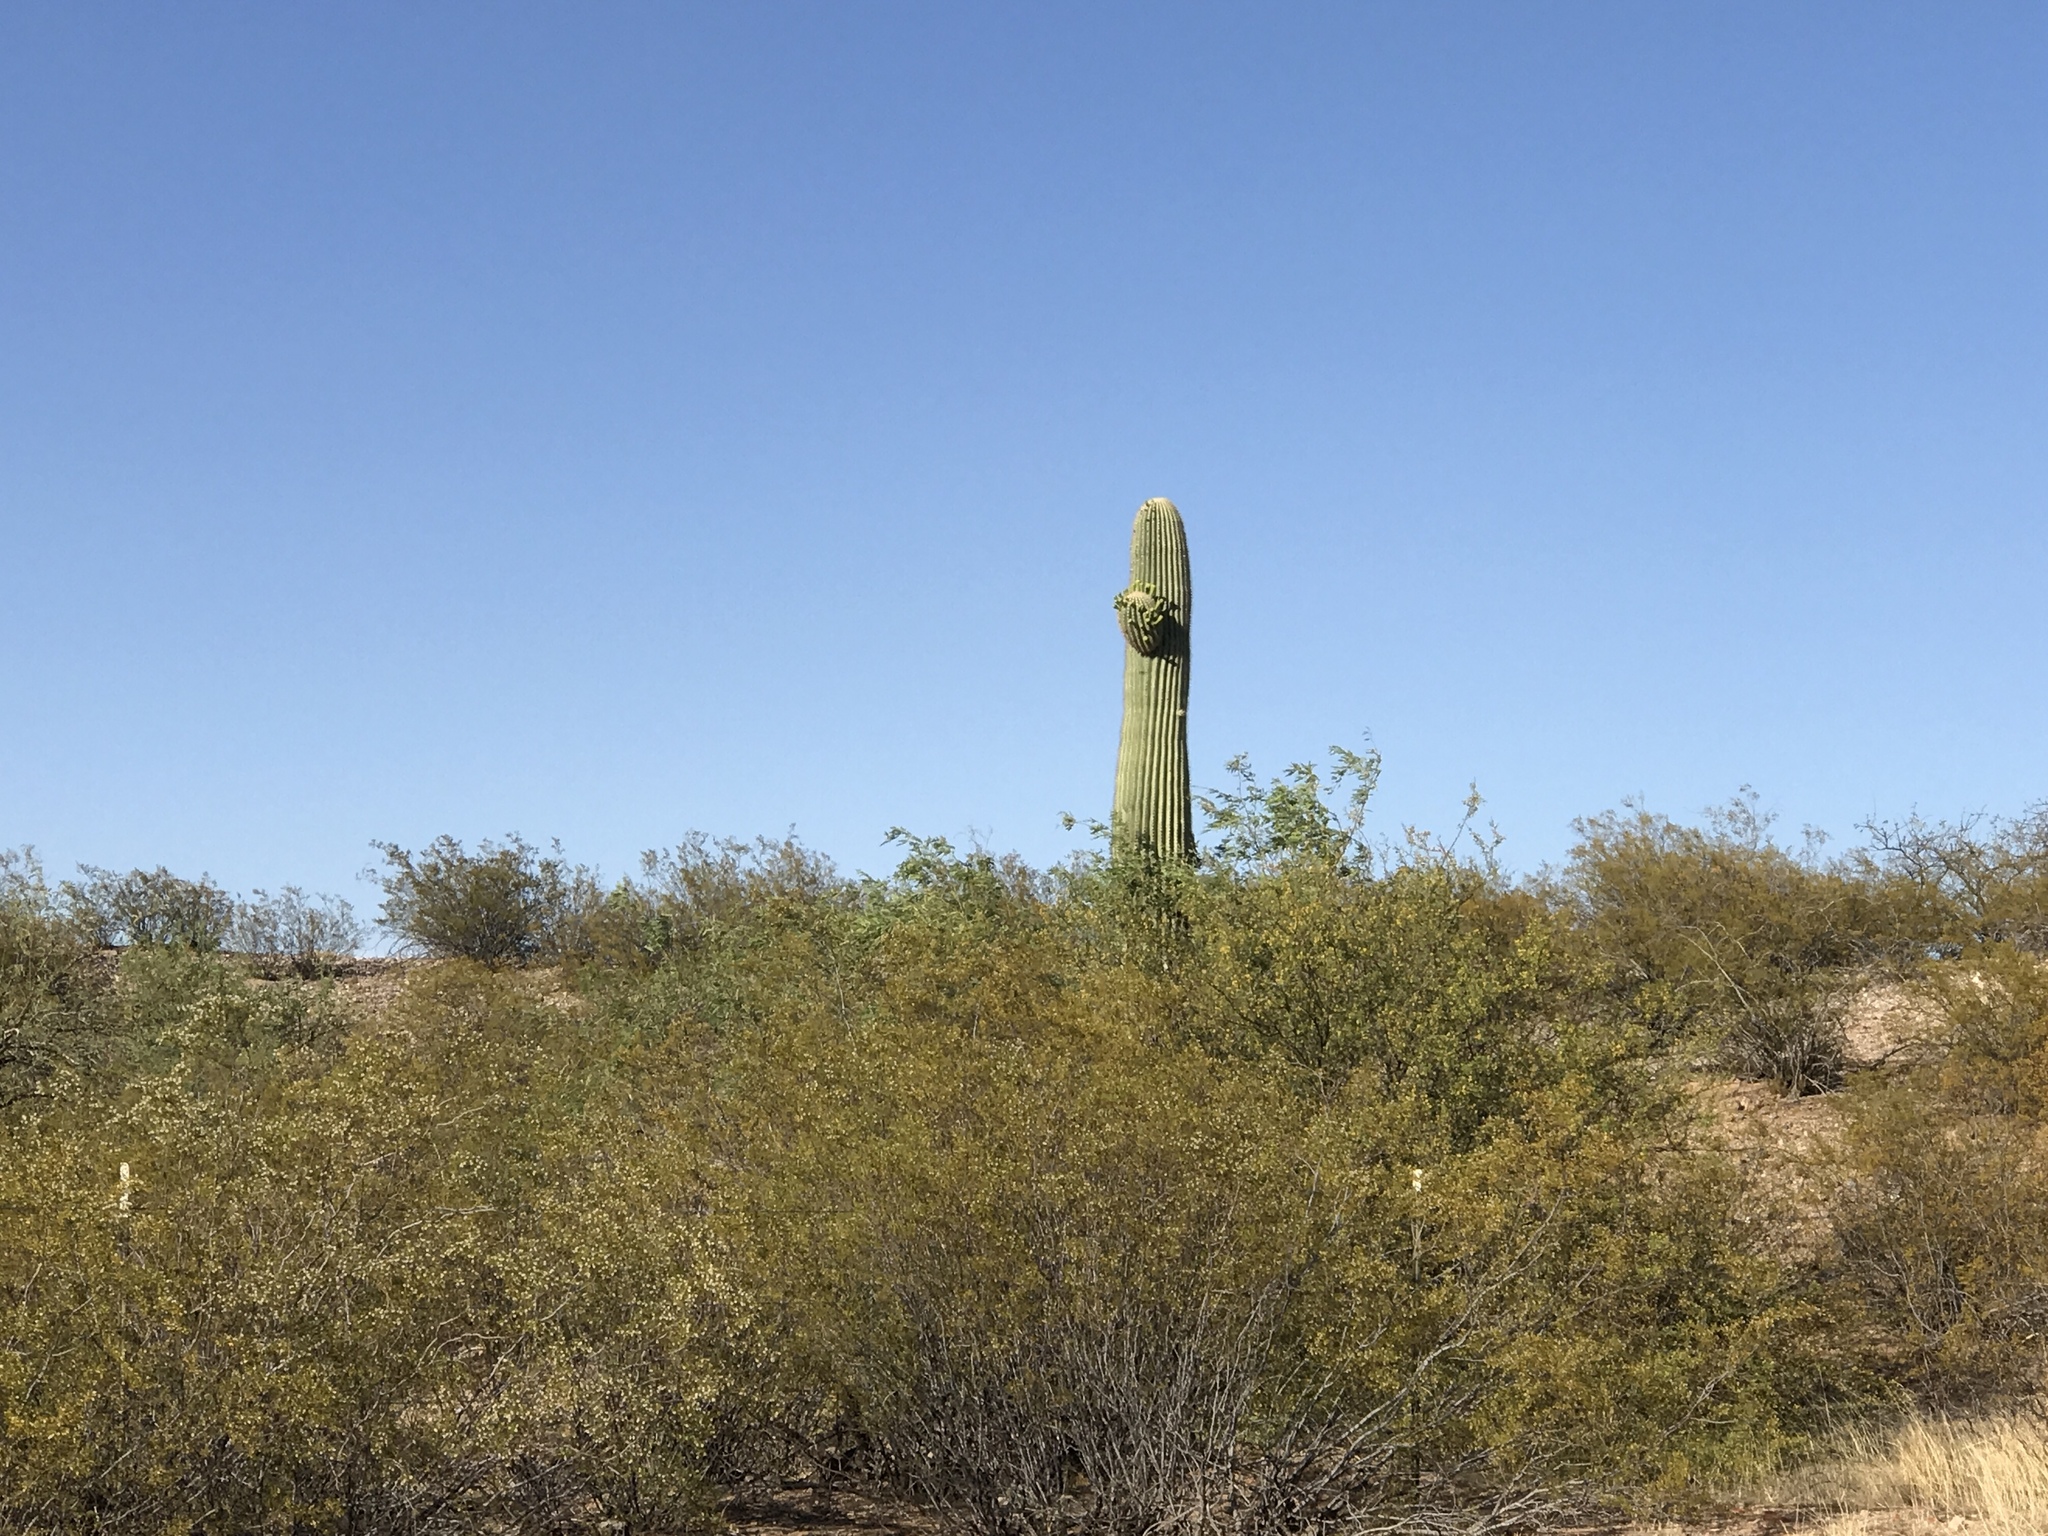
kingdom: Plantae
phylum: Tracheophyta
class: Magnoliopsida
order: Caryophyllales
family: Cactaceae
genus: Carnegiea
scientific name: Carnegiea gigantea
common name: Saguaro
